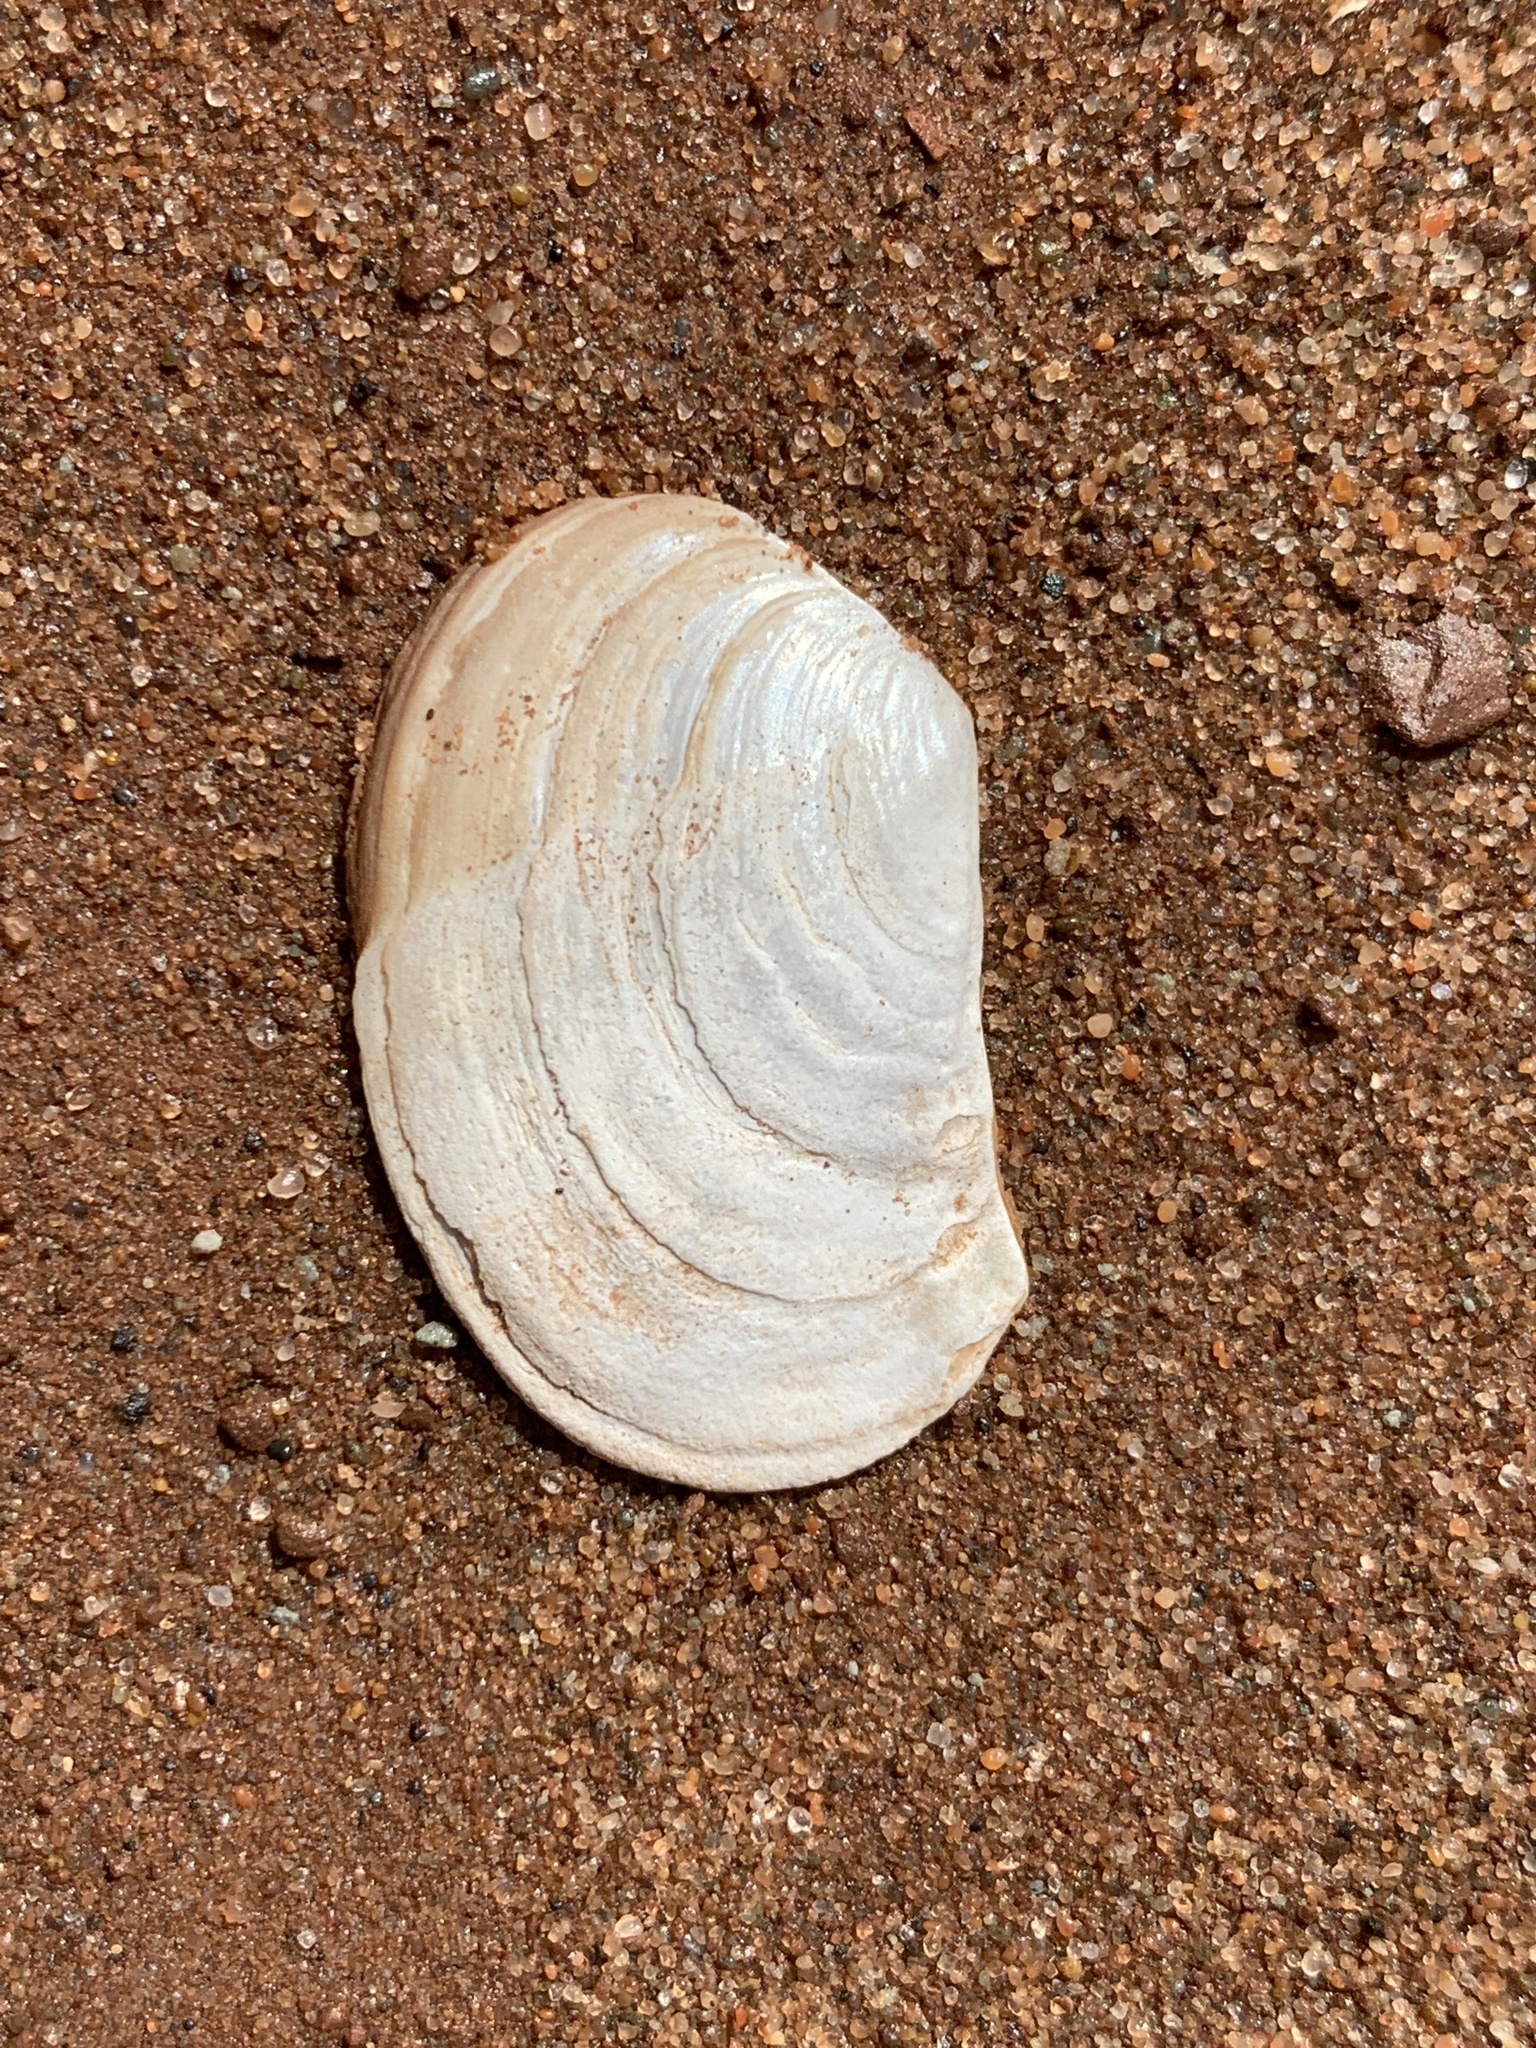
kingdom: Animalia
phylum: Mollusca
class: Bivalvia
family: Pandoridae
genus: Pandora
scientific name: Pandora gouldiana
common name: Rounded pandora
